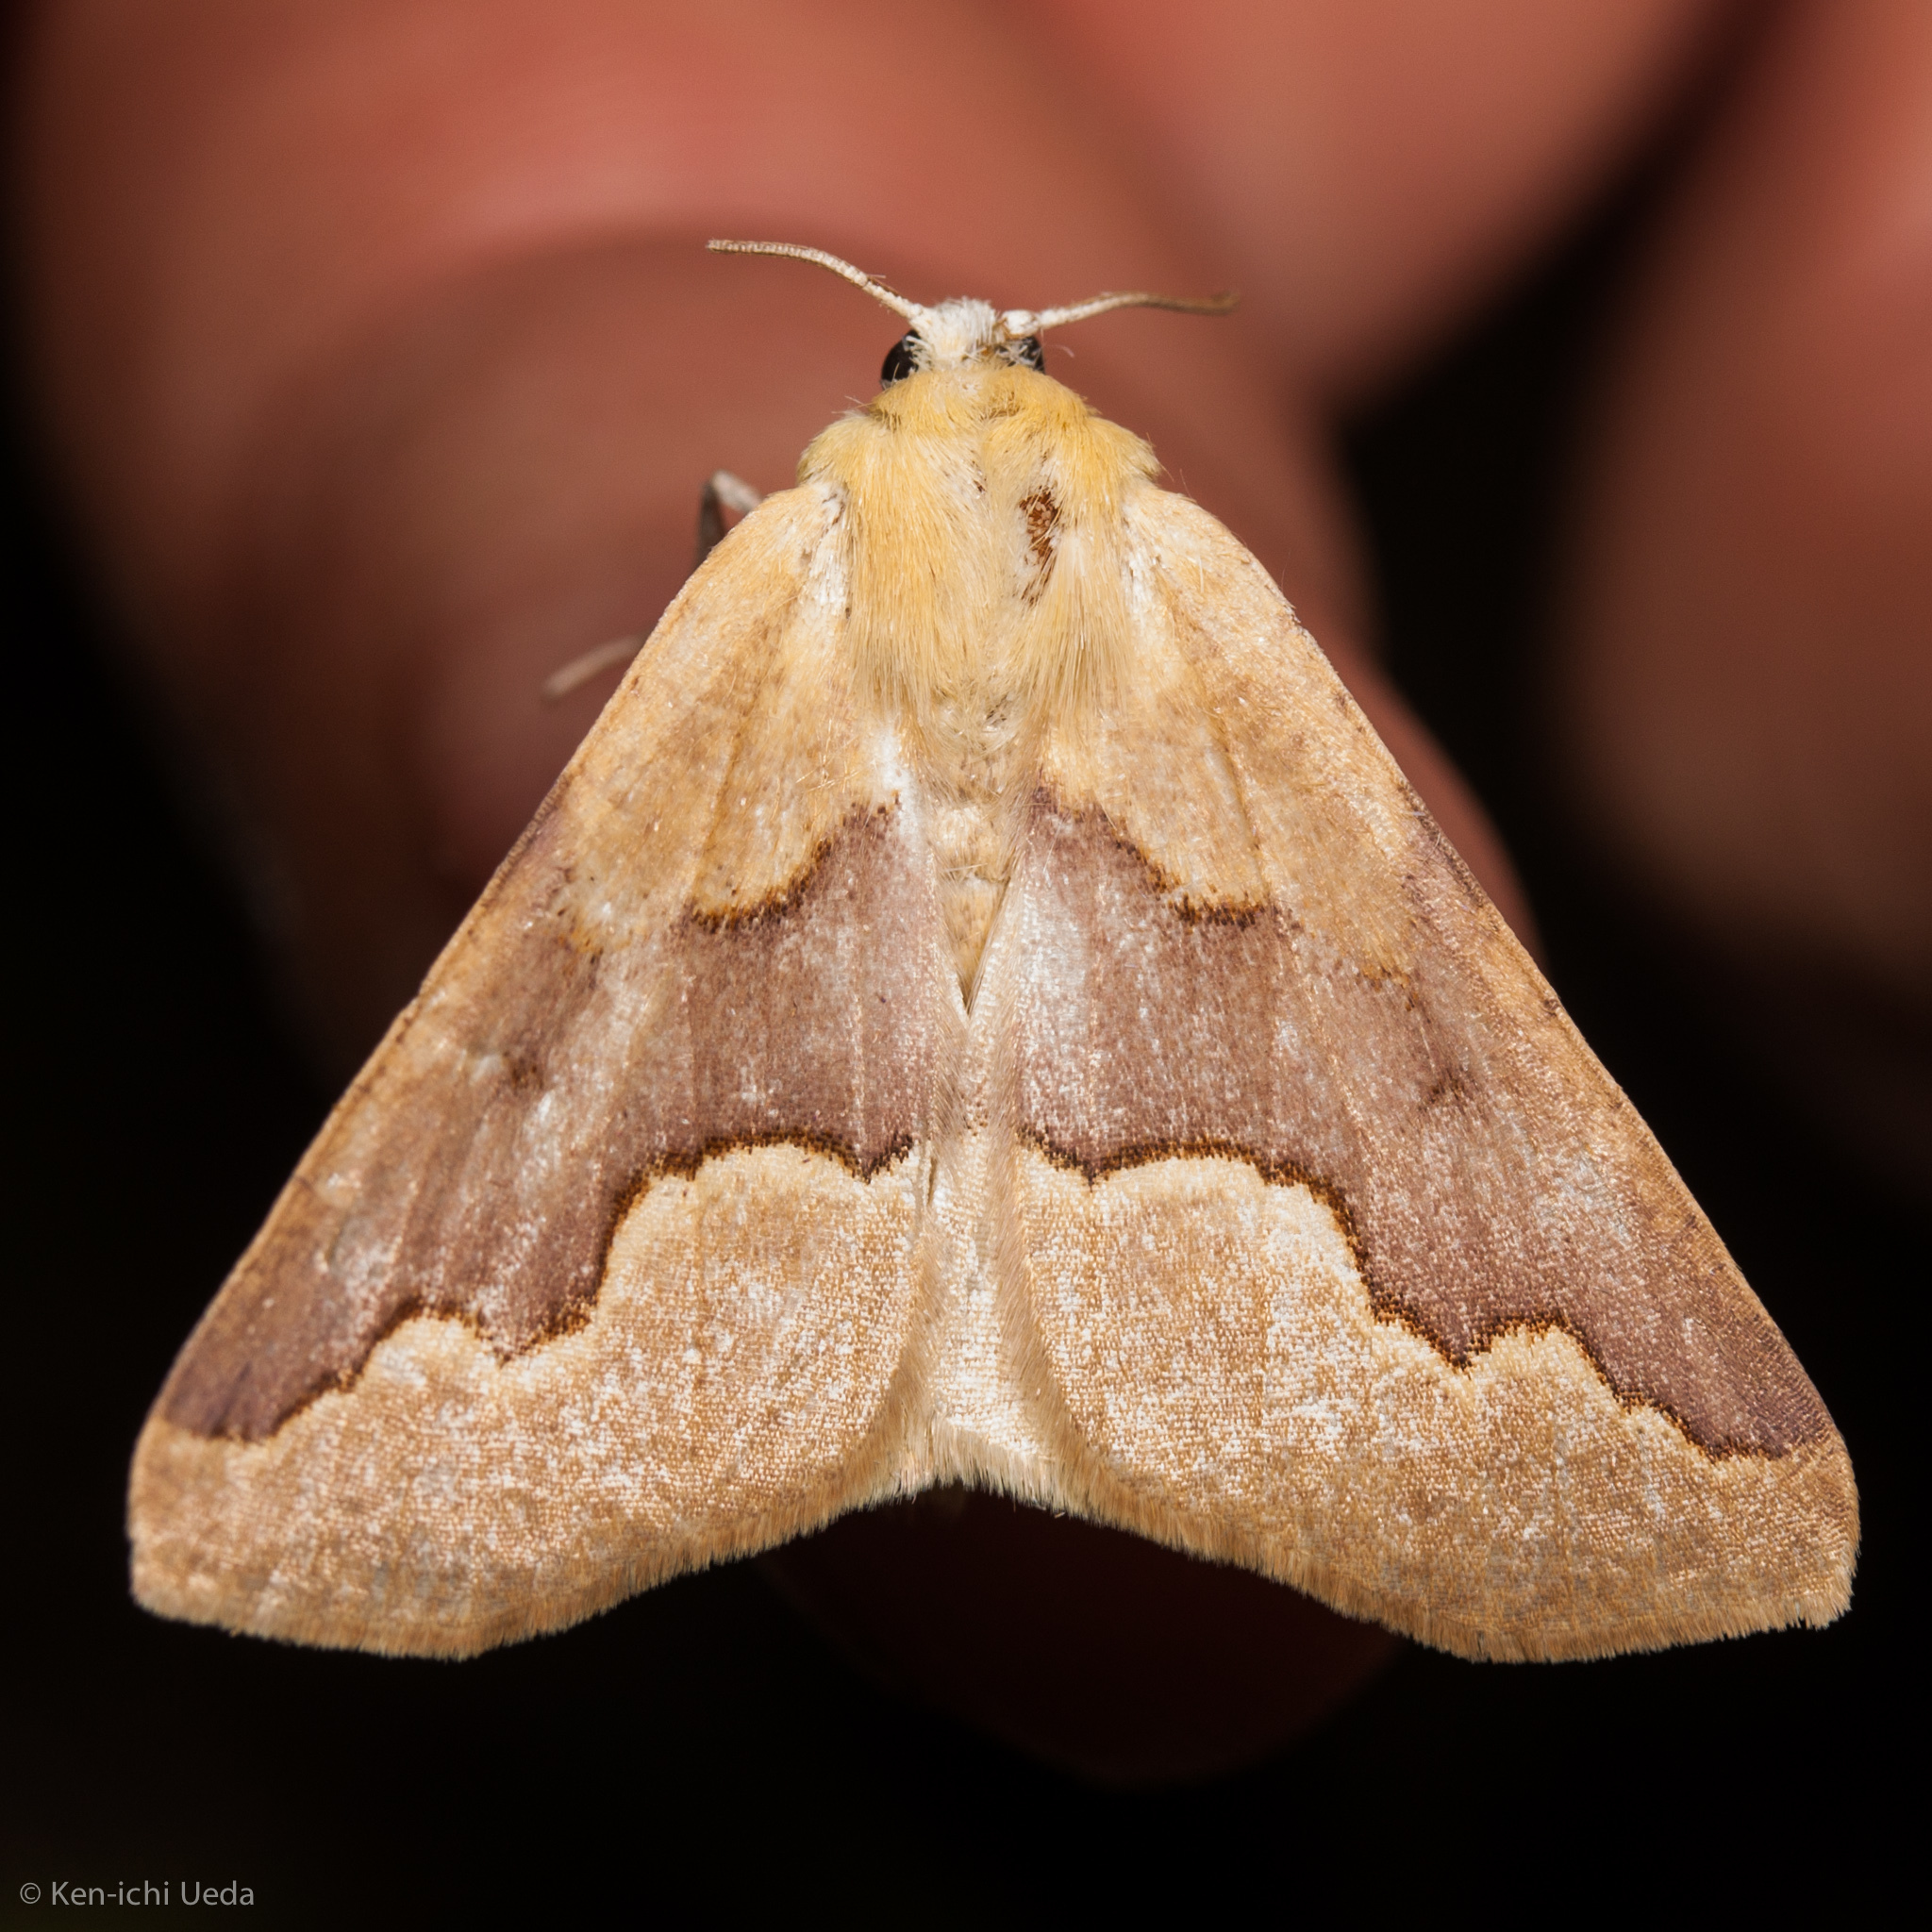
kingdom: Animalia
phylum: Arthropoda
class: Insecta
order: Lepidoptera
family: Geometridae
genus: Sabulodes
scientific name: Sabulodes spoliata
